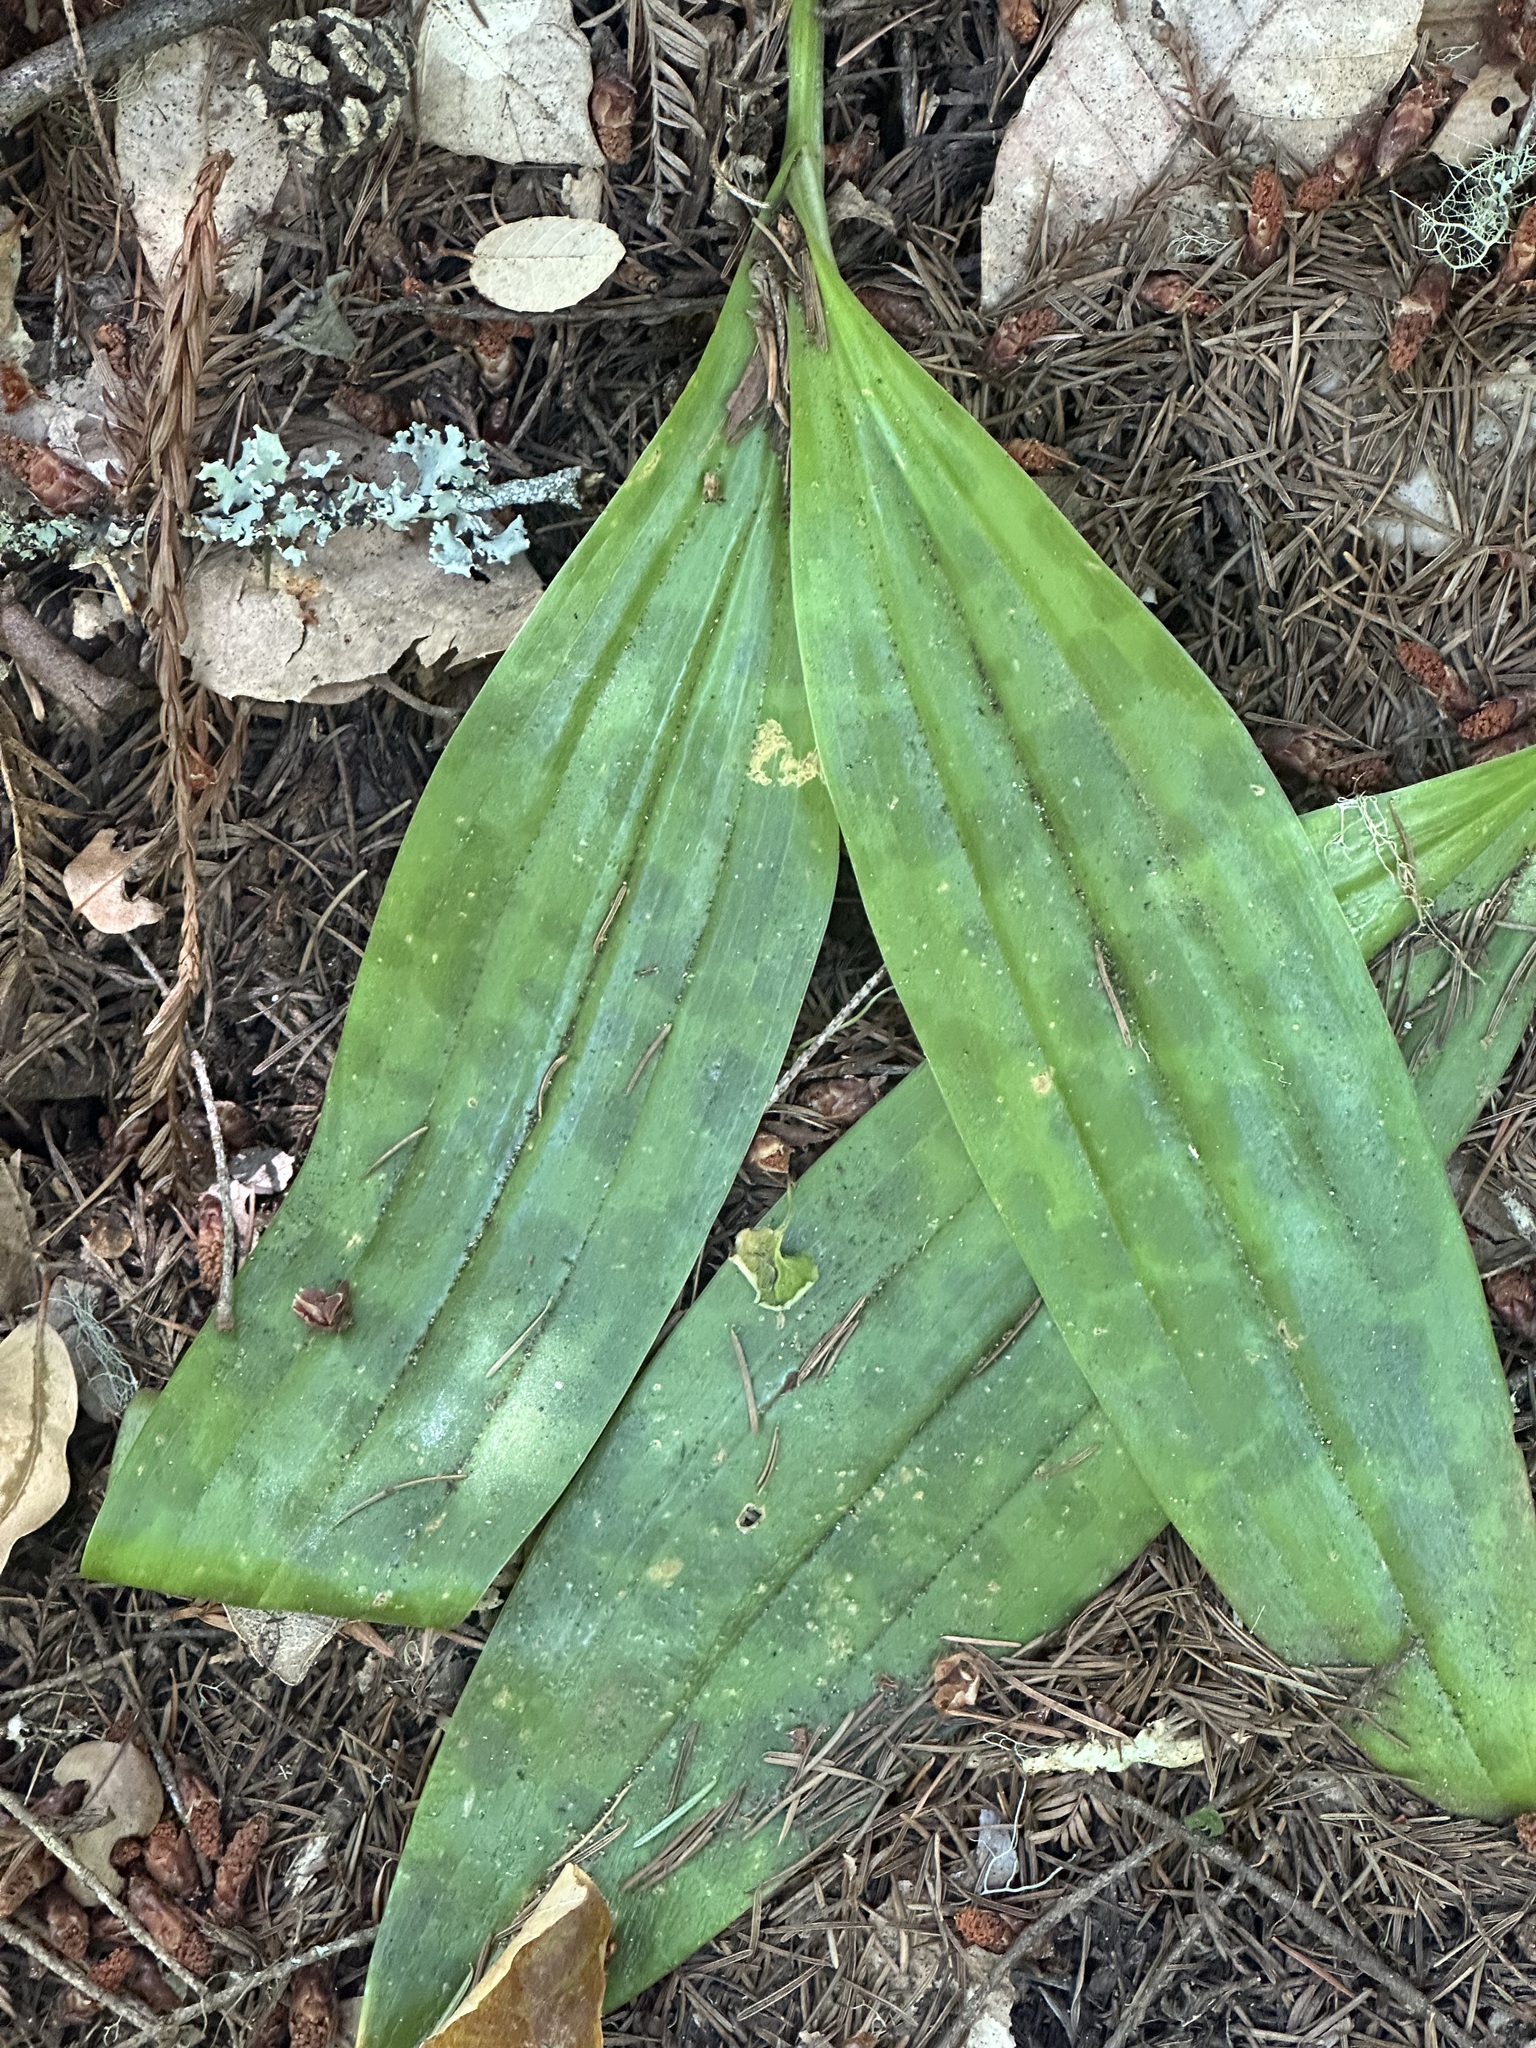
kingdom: Plantae
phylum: Tracheophyta
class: Liliopsida
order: Liliales
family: Liliaceae
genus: Scoliopus
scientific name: Scoliopus bigelovii
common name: Foetid adder's-tongue
